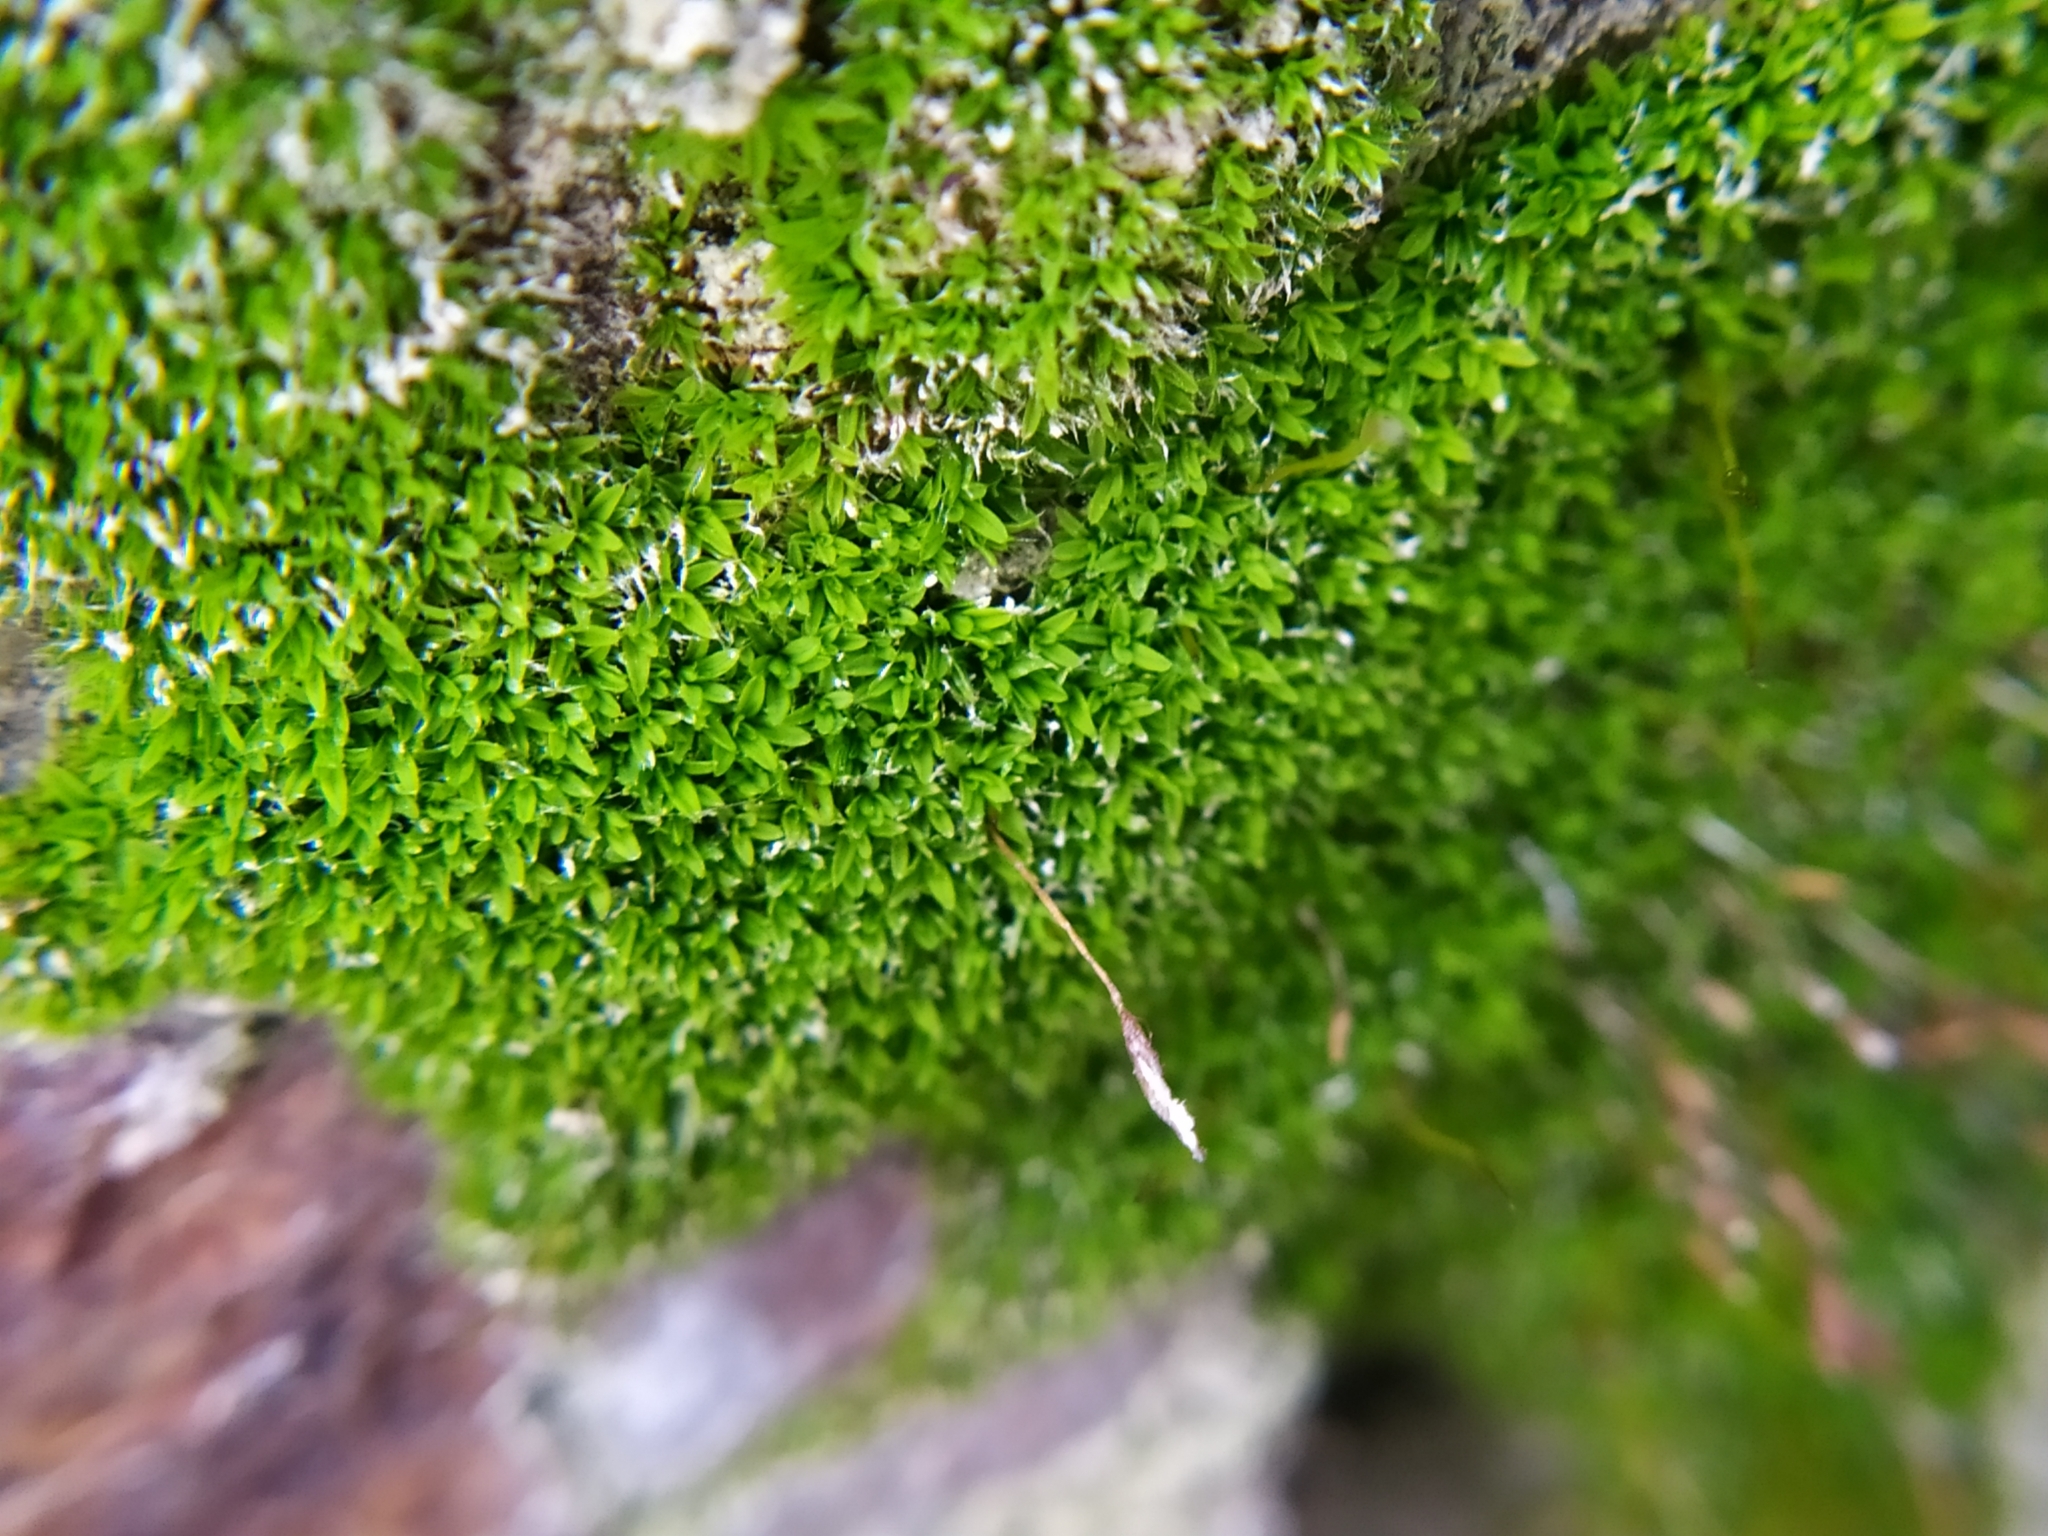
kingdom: Plantae
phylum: Bryophyta
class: Bryopsida
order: Pottiales
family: Pottiaceae
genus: Tortula
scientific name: Tortula muralis
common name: Wall screw-moss
